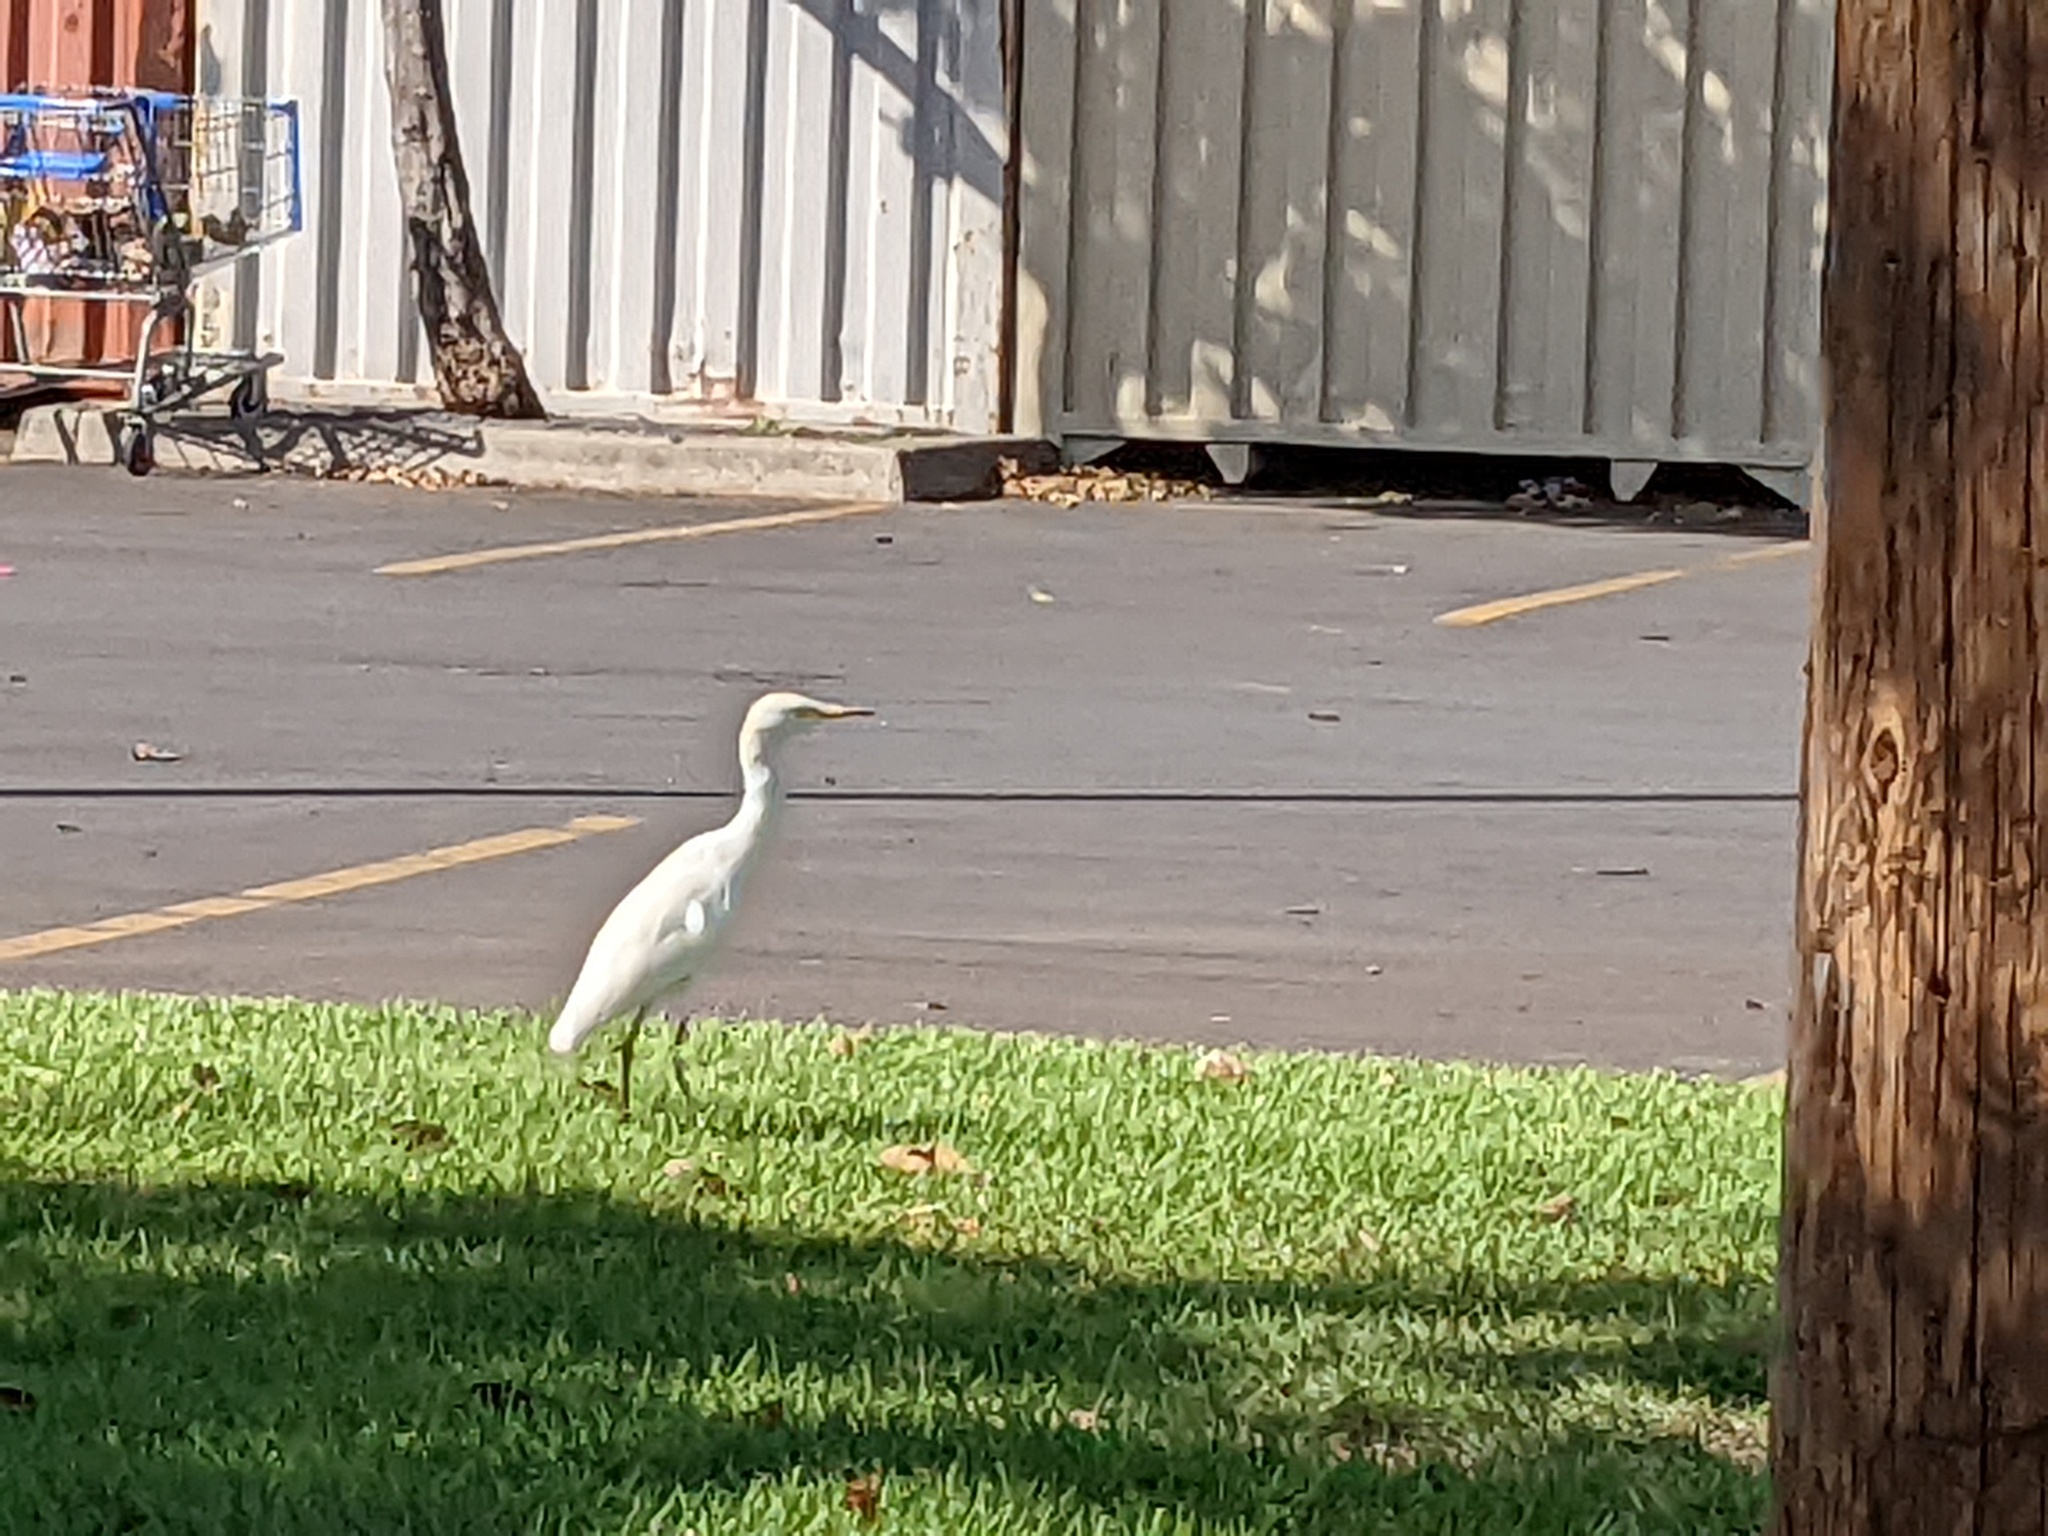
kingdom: Animalia
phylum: Chordata
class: Aves
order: Pelecaniformes
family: Ardeidae
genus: Bubulcus
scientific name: Bubulcus ibis
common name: Cattle egret
